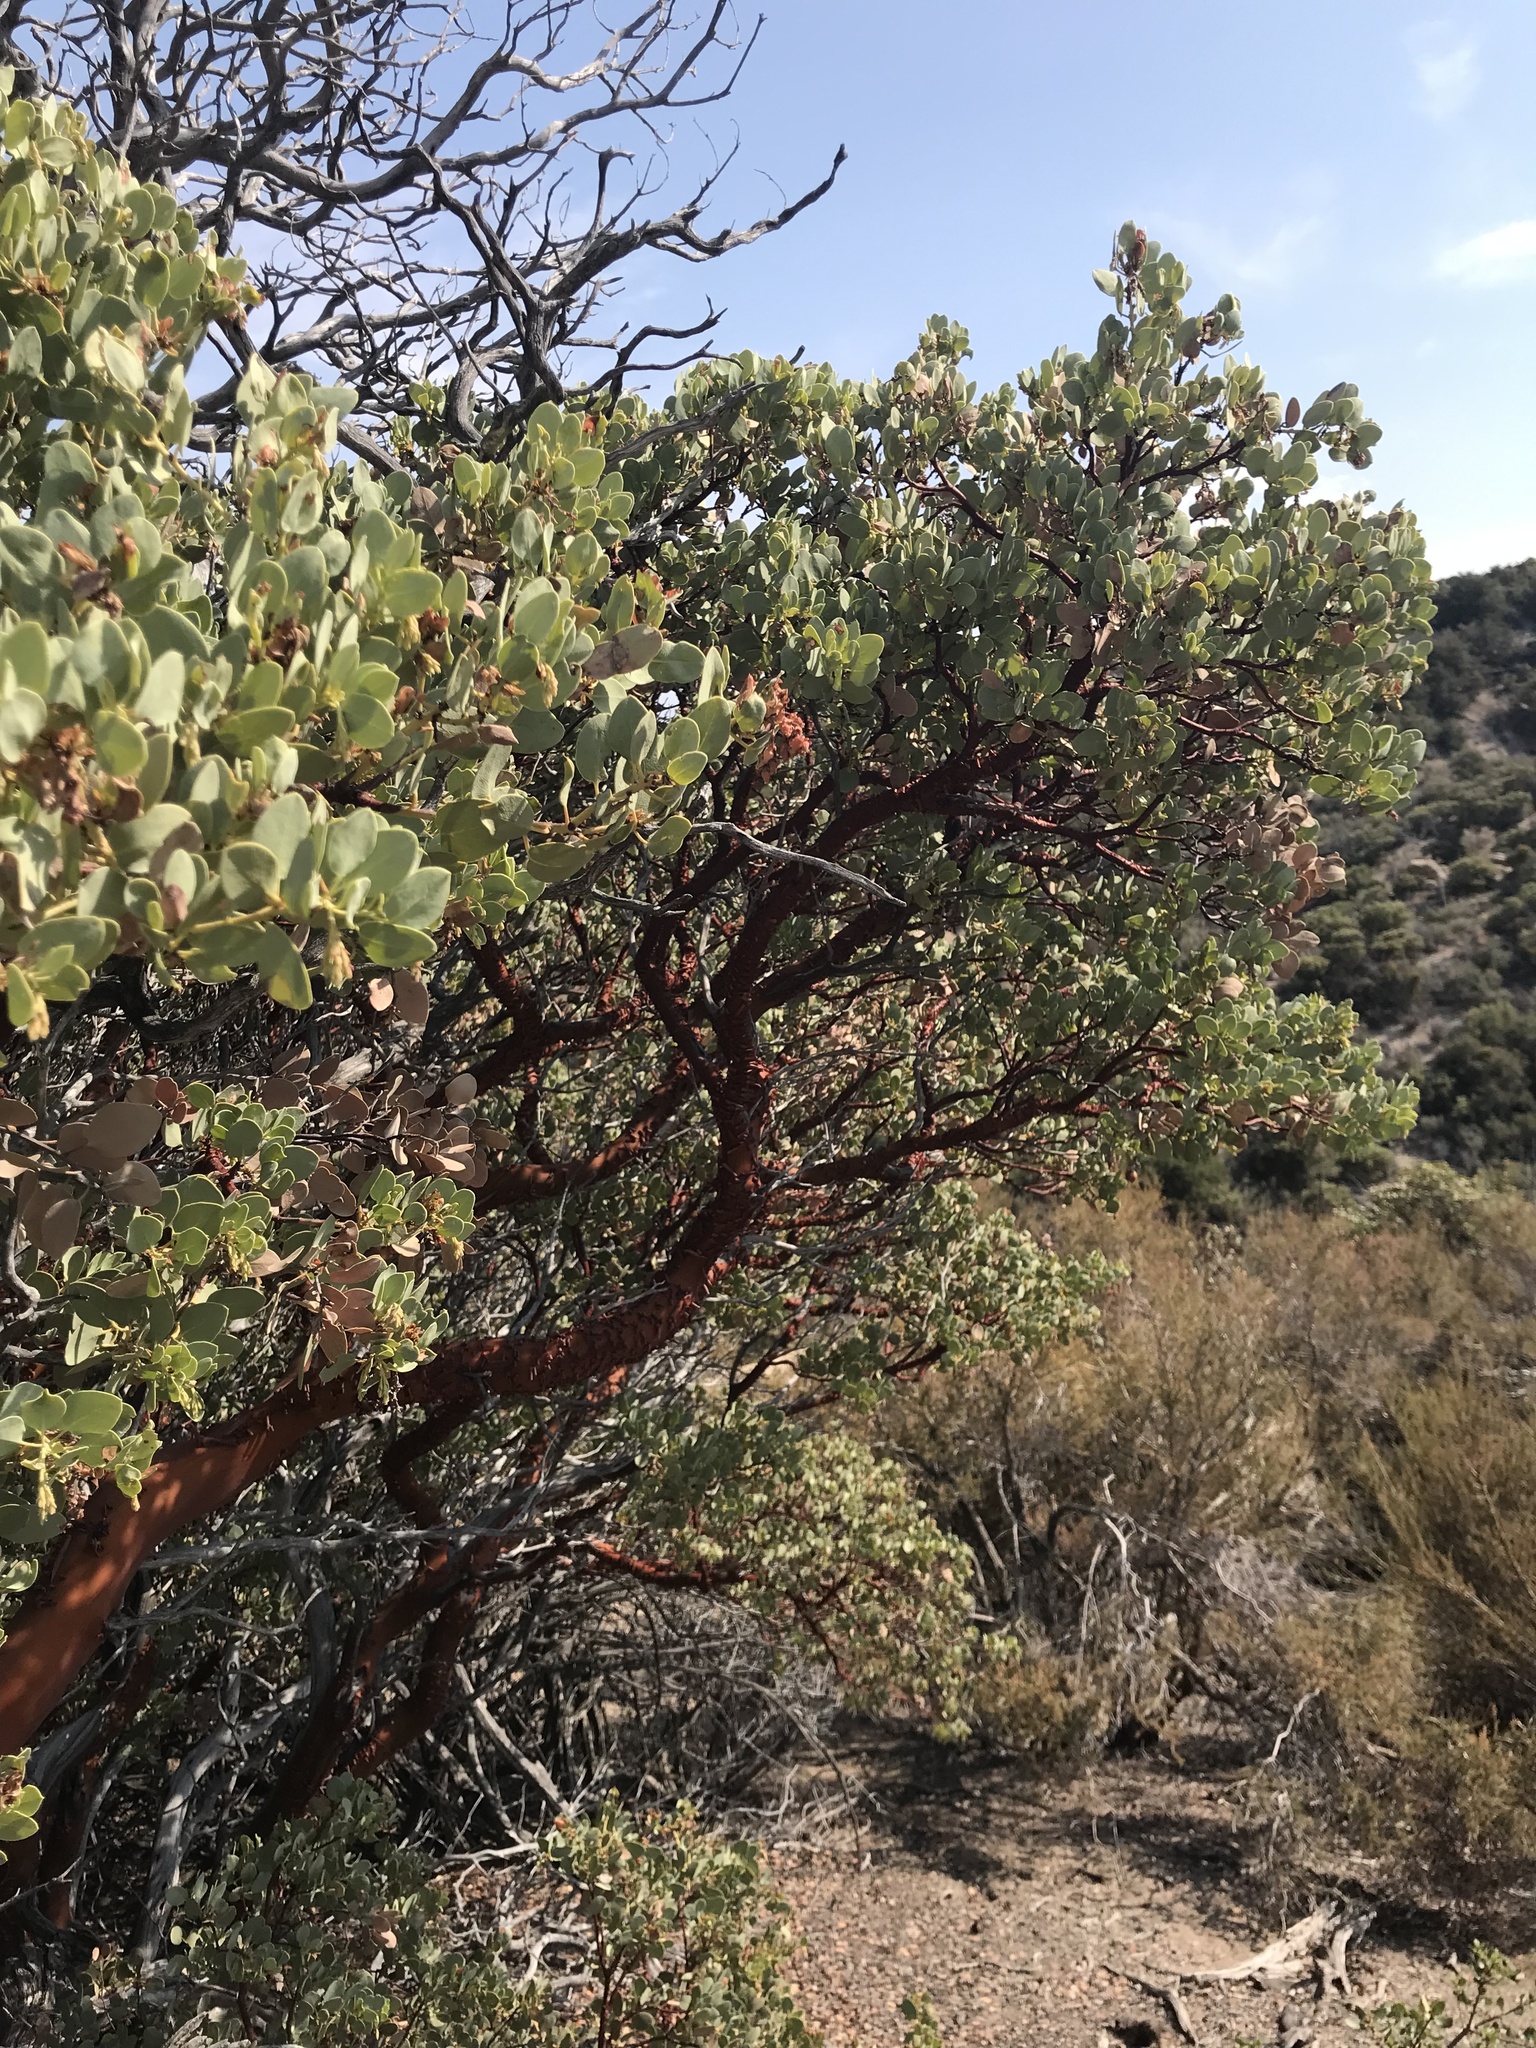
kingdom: Plantae
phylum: Tracheophyta
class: Magnoliopsida
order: Ericales
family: Ericaceae
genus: Arctostaphylos
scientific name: Arctostaphylos glauca
